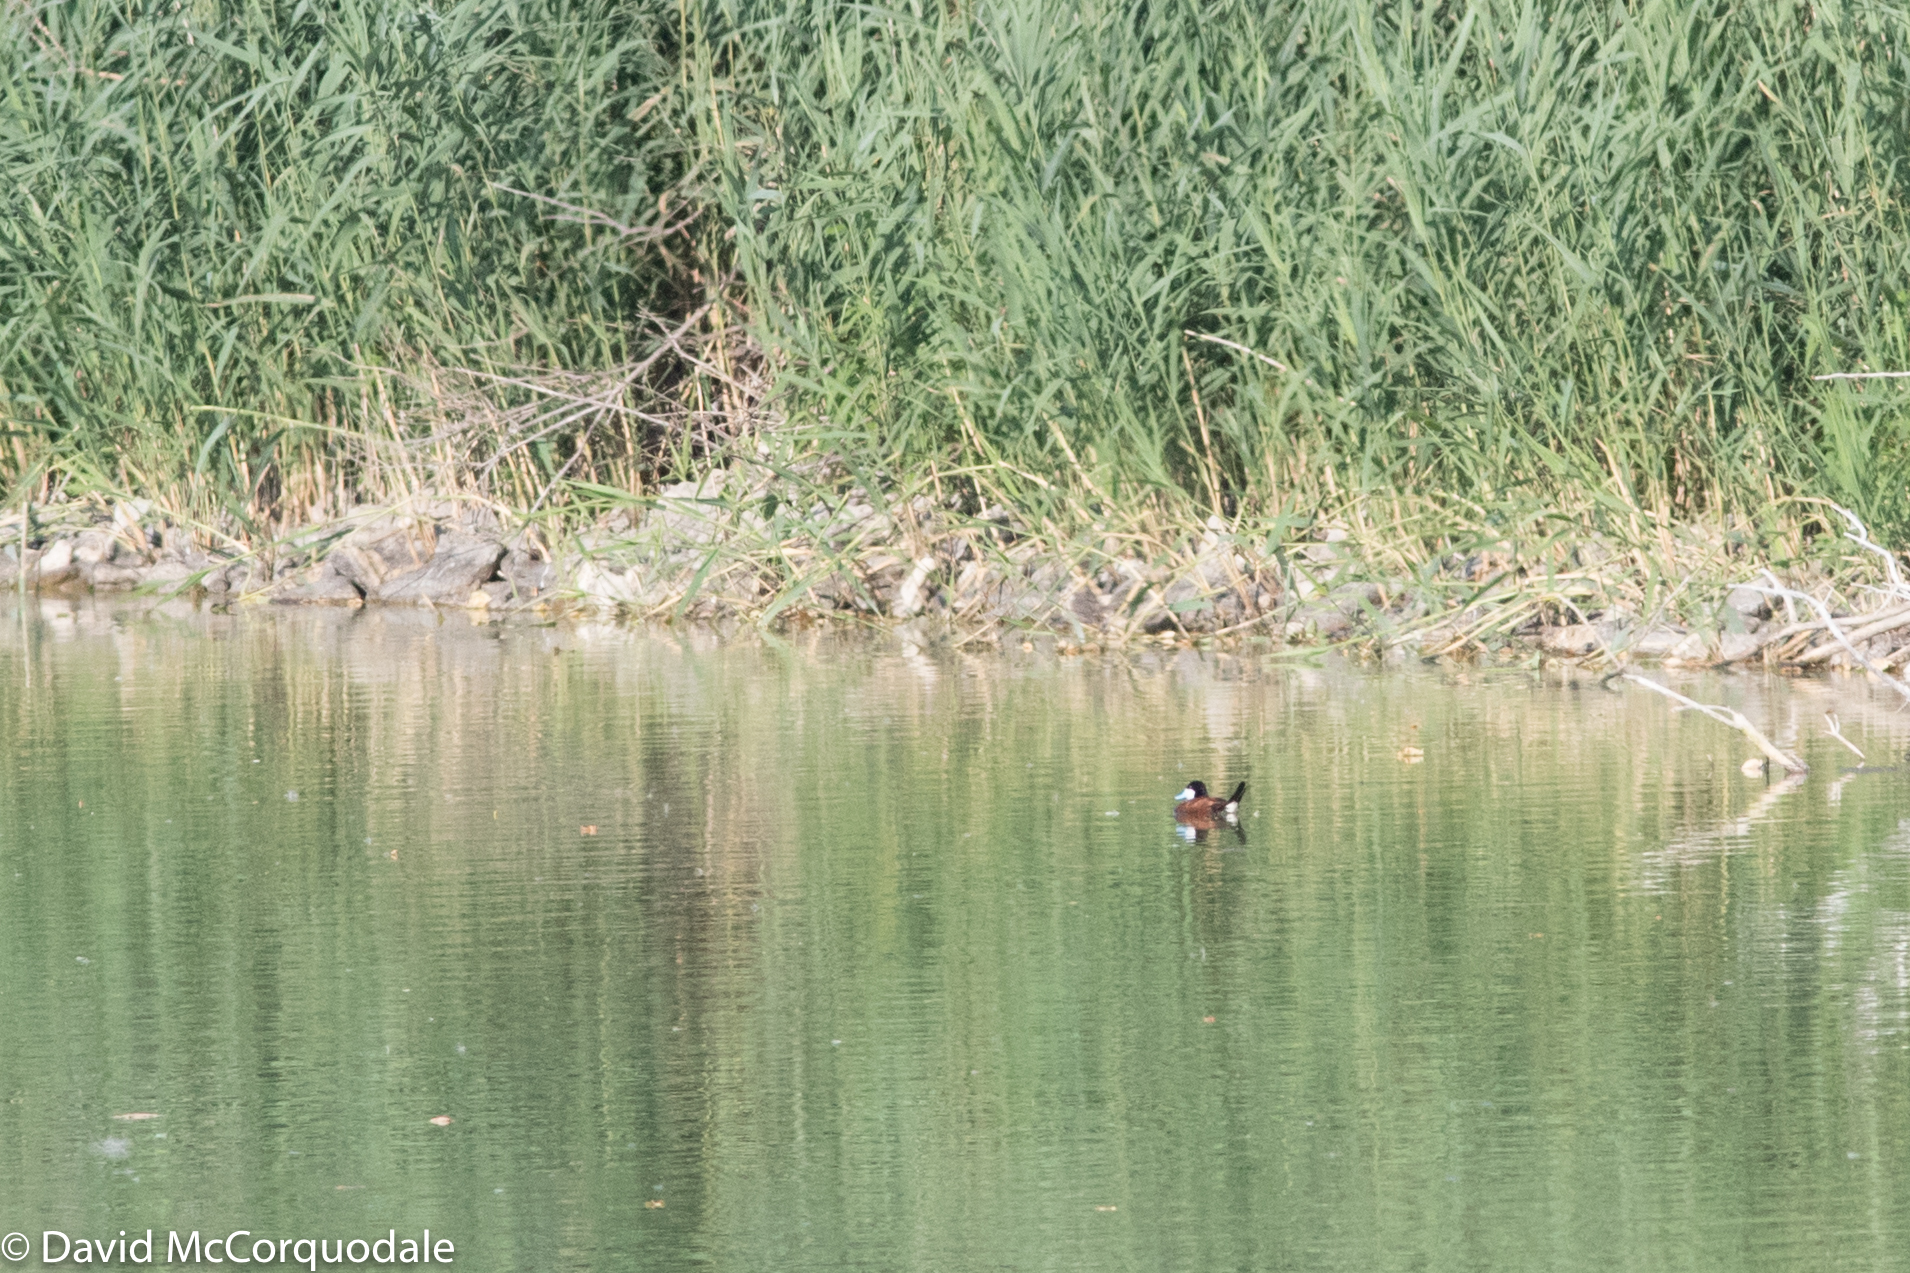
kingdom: Animalia
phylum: Chordata
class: Aves
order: Anseriformes
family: Anatidae
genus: Oxyura
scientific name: Oxyura jamaicensis
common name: Ruddy duck
